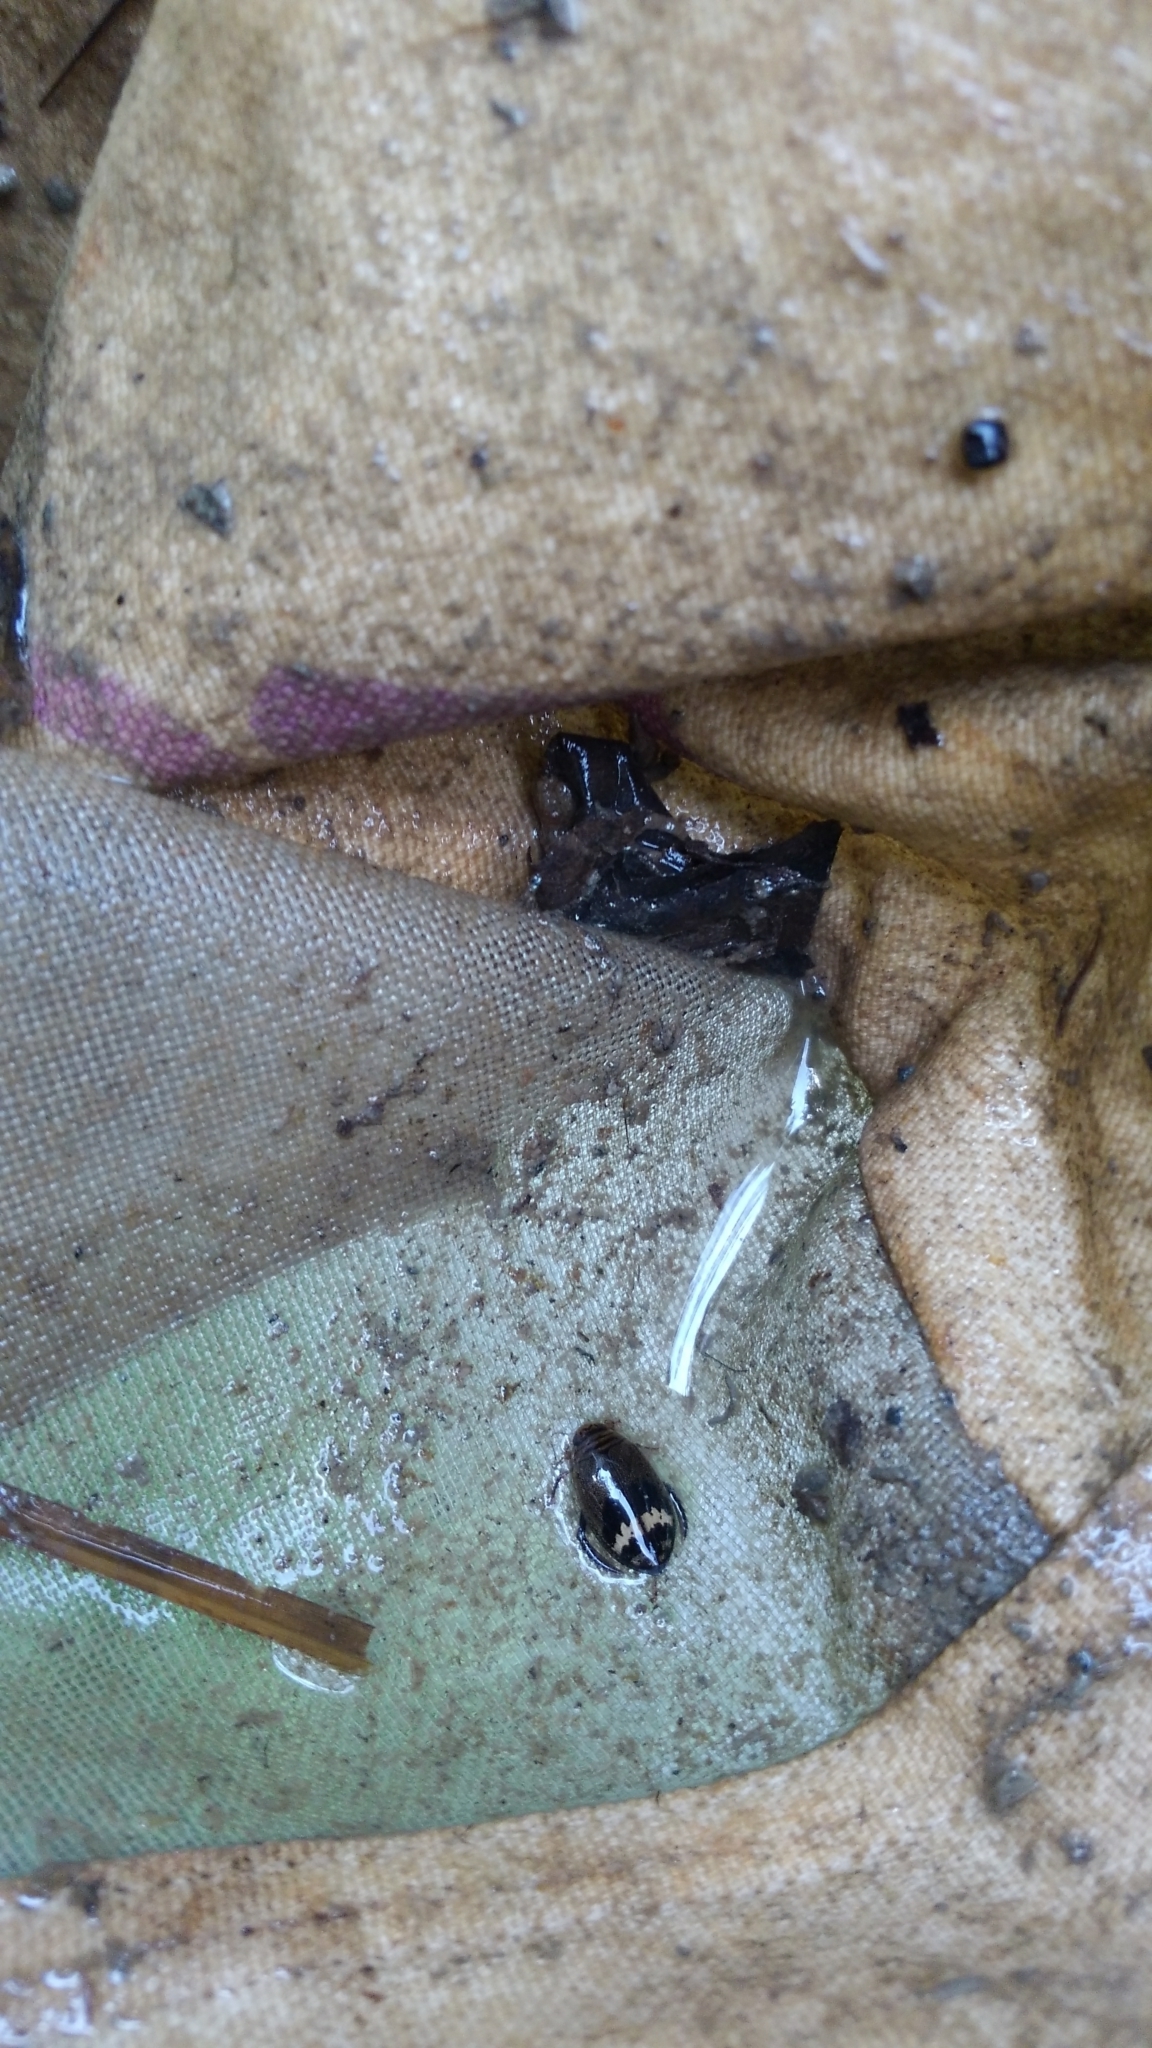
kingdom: Animalia
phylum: Arthropoda
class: Insecta
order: Coleoptera
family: Dytiscidae
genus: Acilius
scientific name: Acilius mediatus
